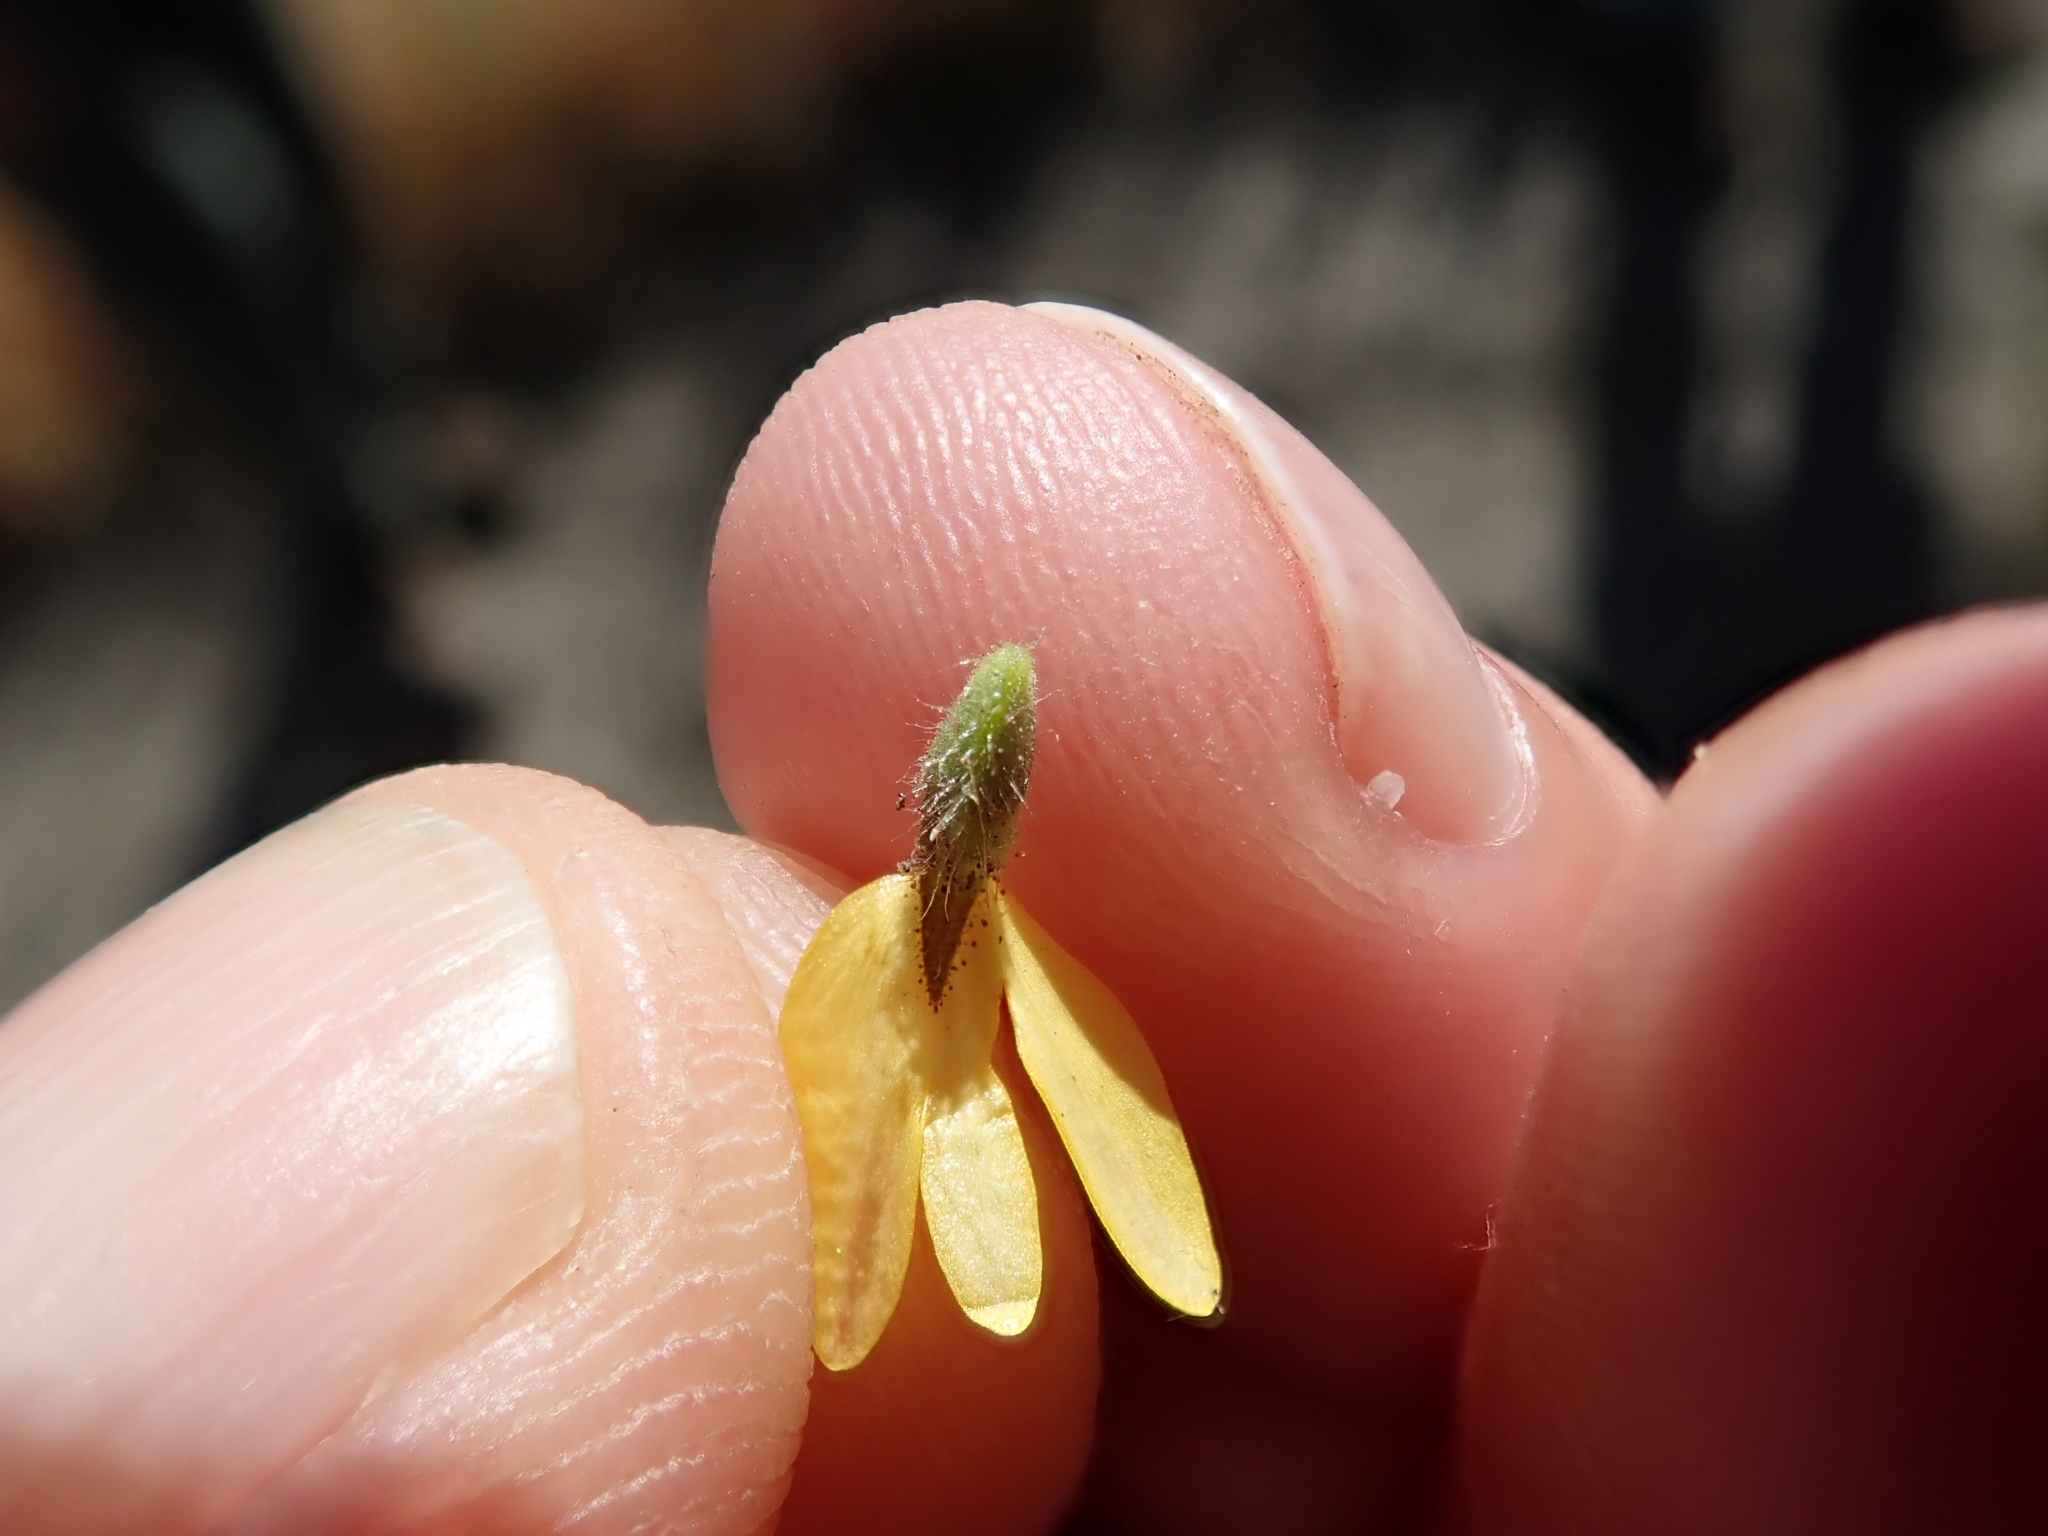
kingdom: Plantae
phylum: Tracheophyta
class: Magnoliopsida
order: Asterales
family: Asteraceae
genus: Hemizonia
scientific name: Hemizonia congesta
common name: Hayfield tarweed
